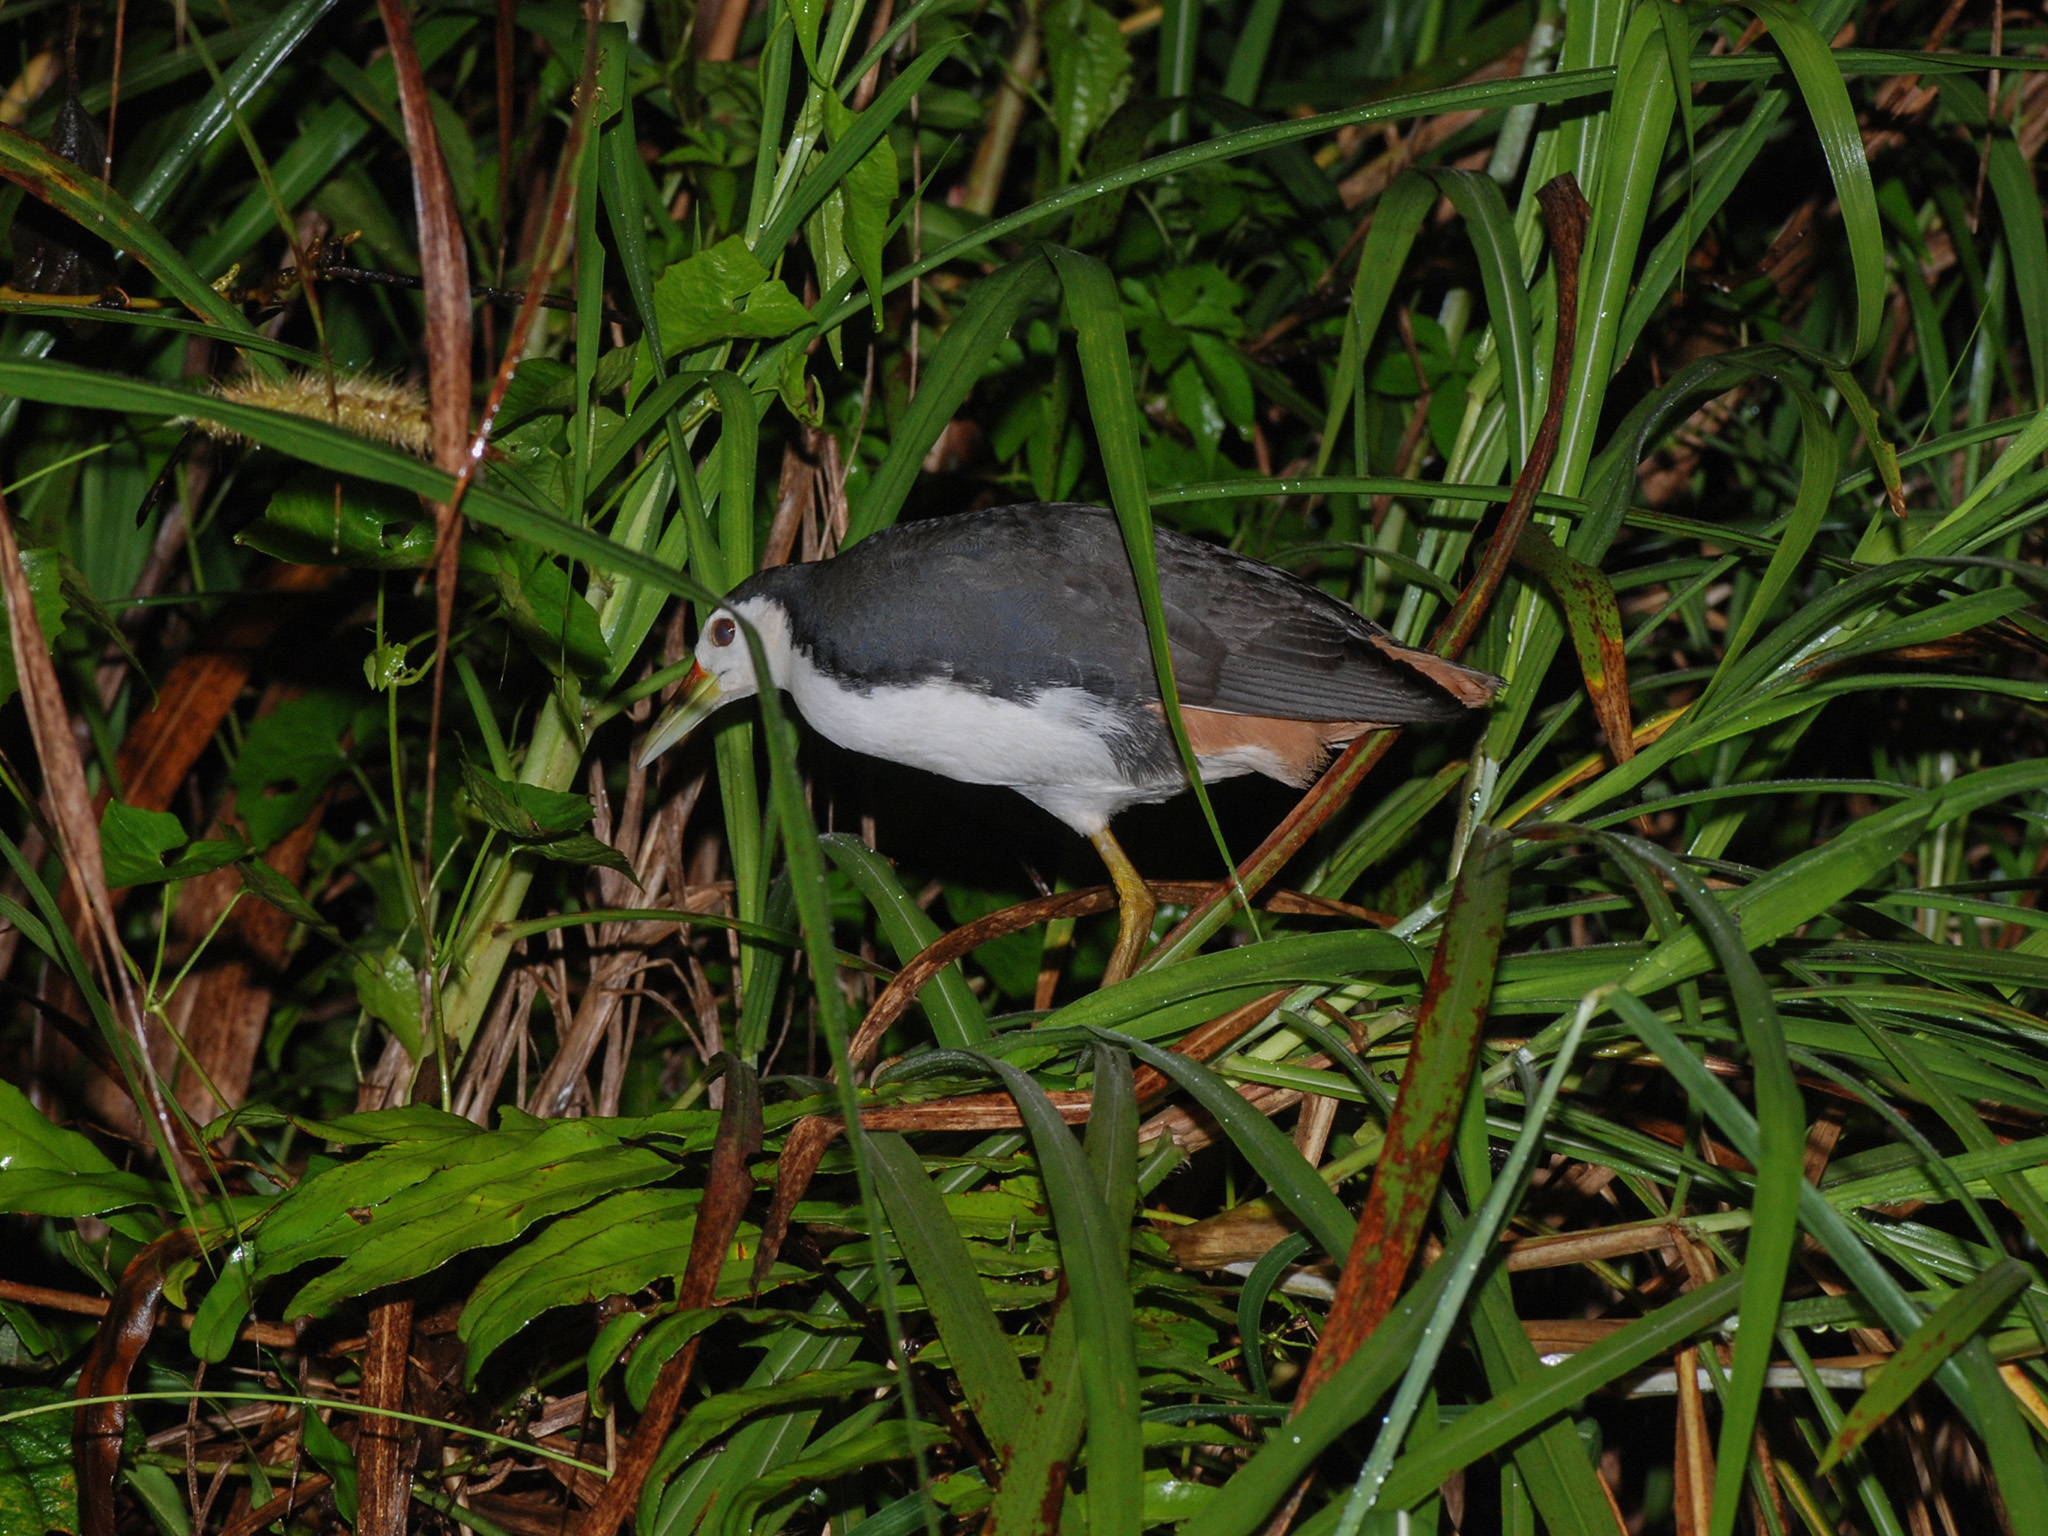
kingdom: Animalia
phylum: Chordata
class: Aves
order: Gruiformes
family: Rallidae
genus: Amaurornis
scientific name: Amaurornis phoenicurus
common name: White-breasted waterhen
